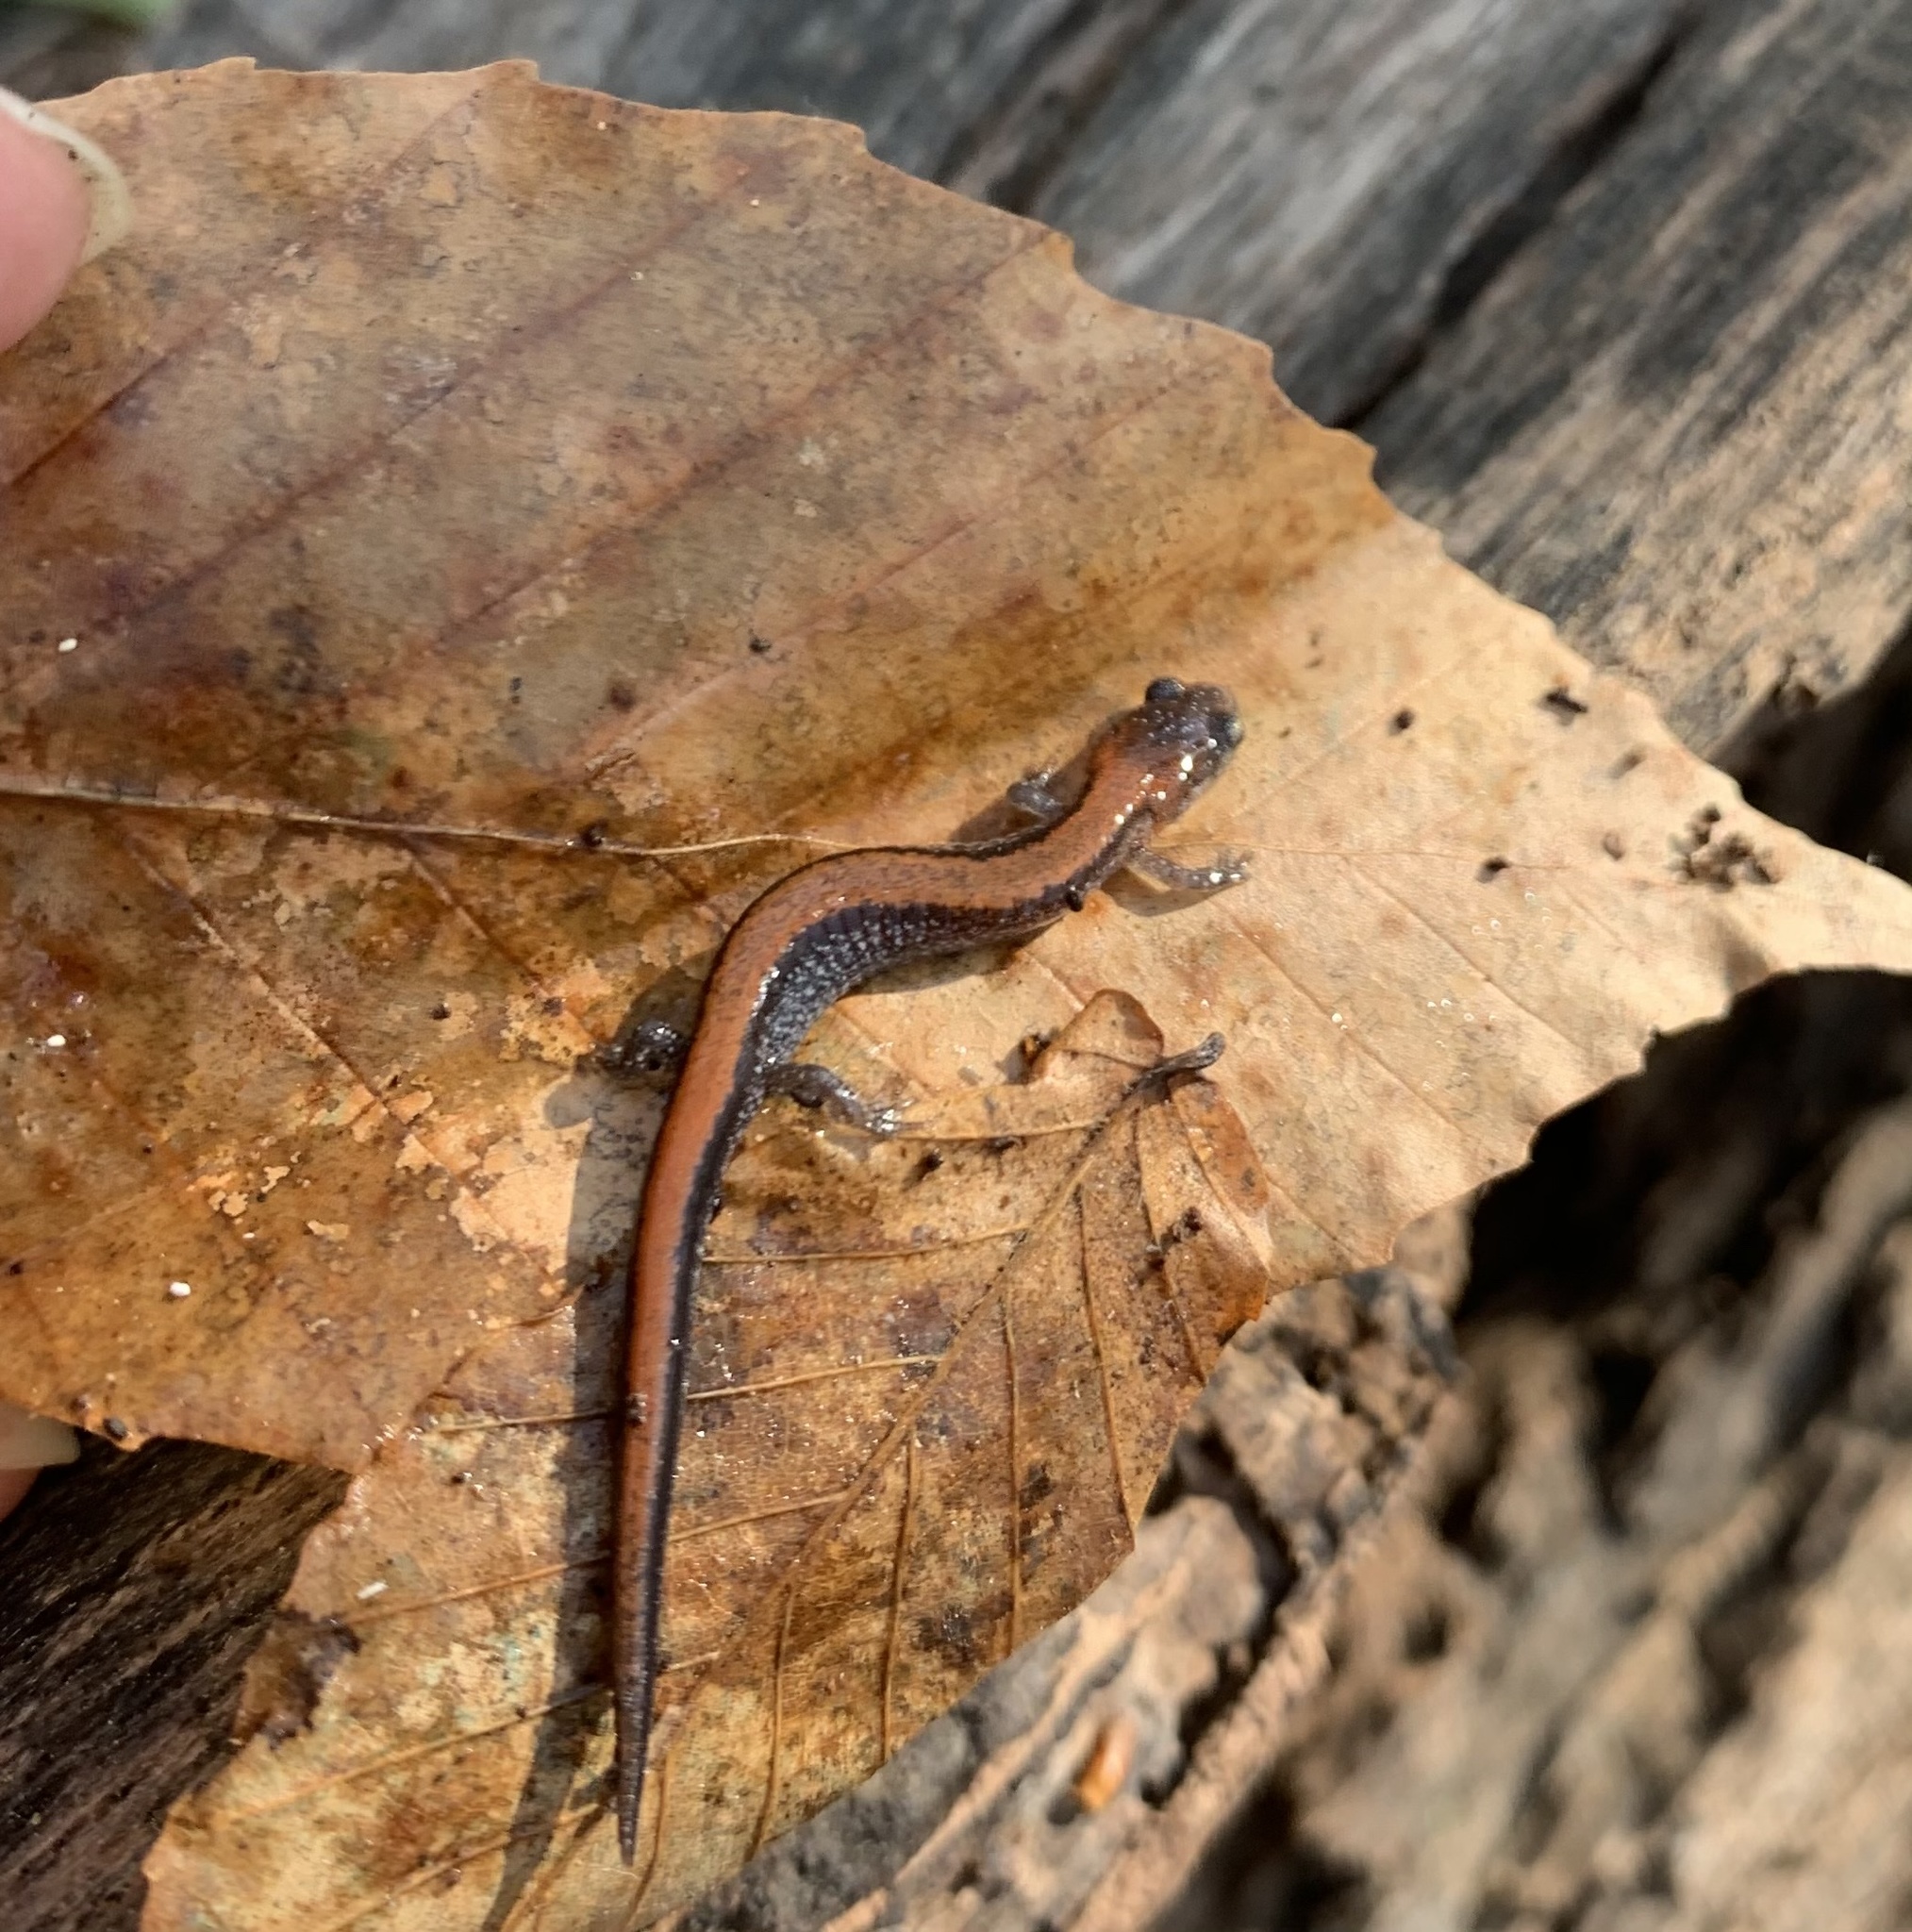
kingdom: Animalia
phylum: Chordata
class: Amphibia
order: Caudata
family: Plethodontidae
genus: Plethodon
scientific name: Plethodon cinereus
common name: Redback salamander
